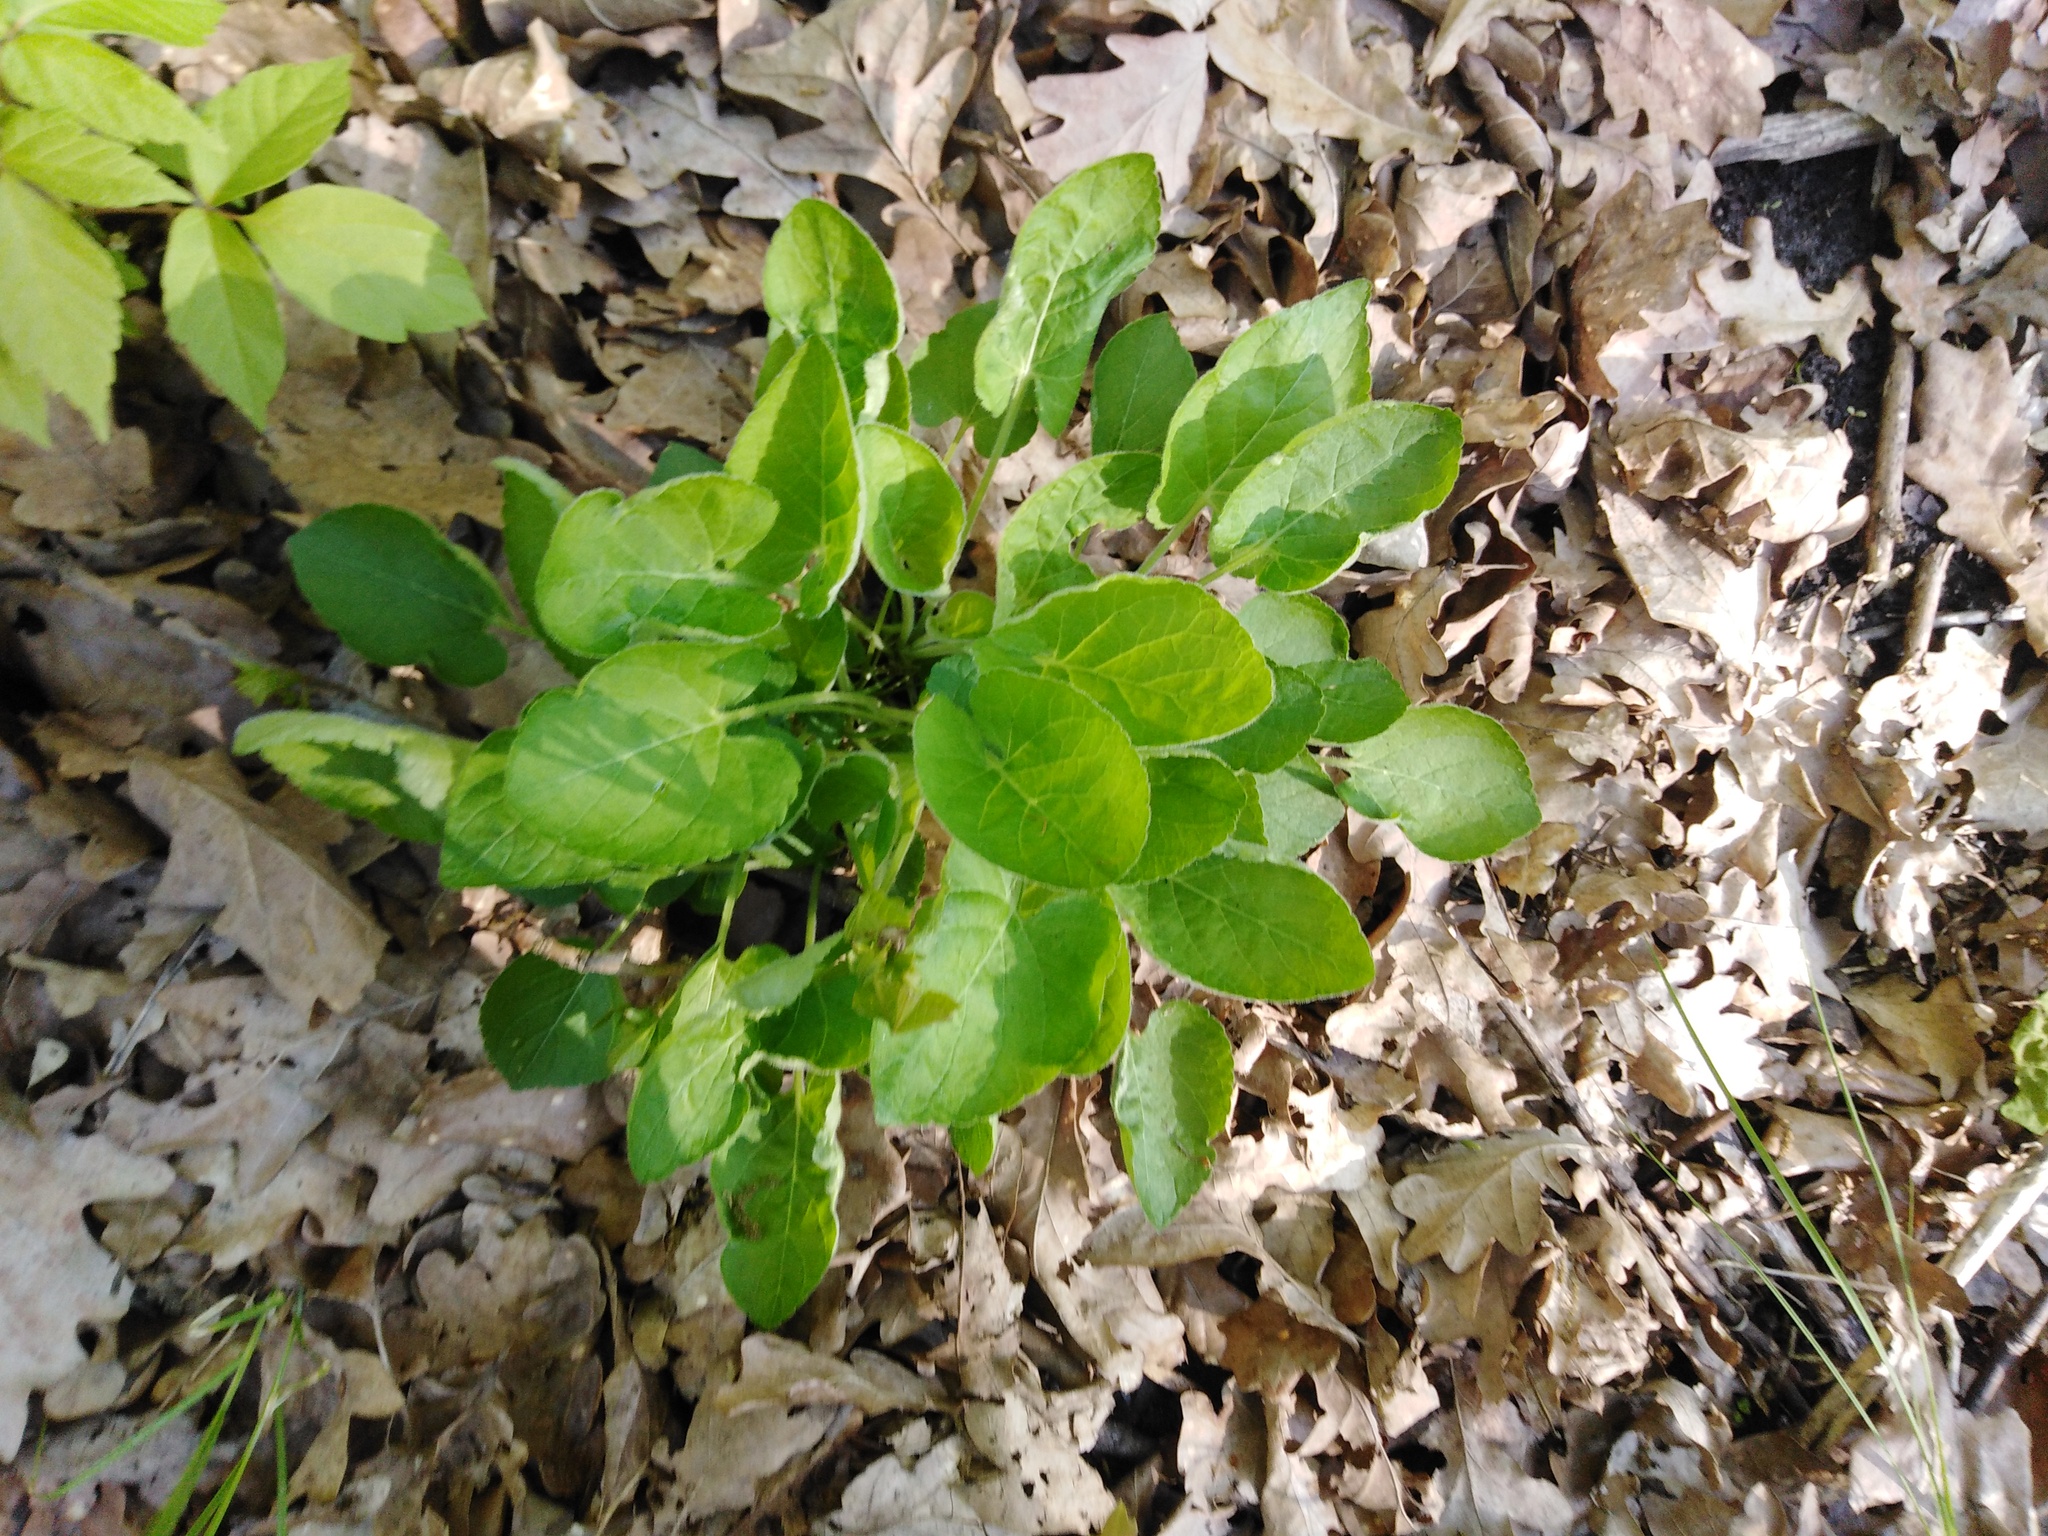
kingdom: Plantae
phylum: Tracheophyta
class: Magnoliopsida
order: Malpighiales
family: Violaceae
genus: Viola
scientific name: Viola hirta
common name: Hairy violet
